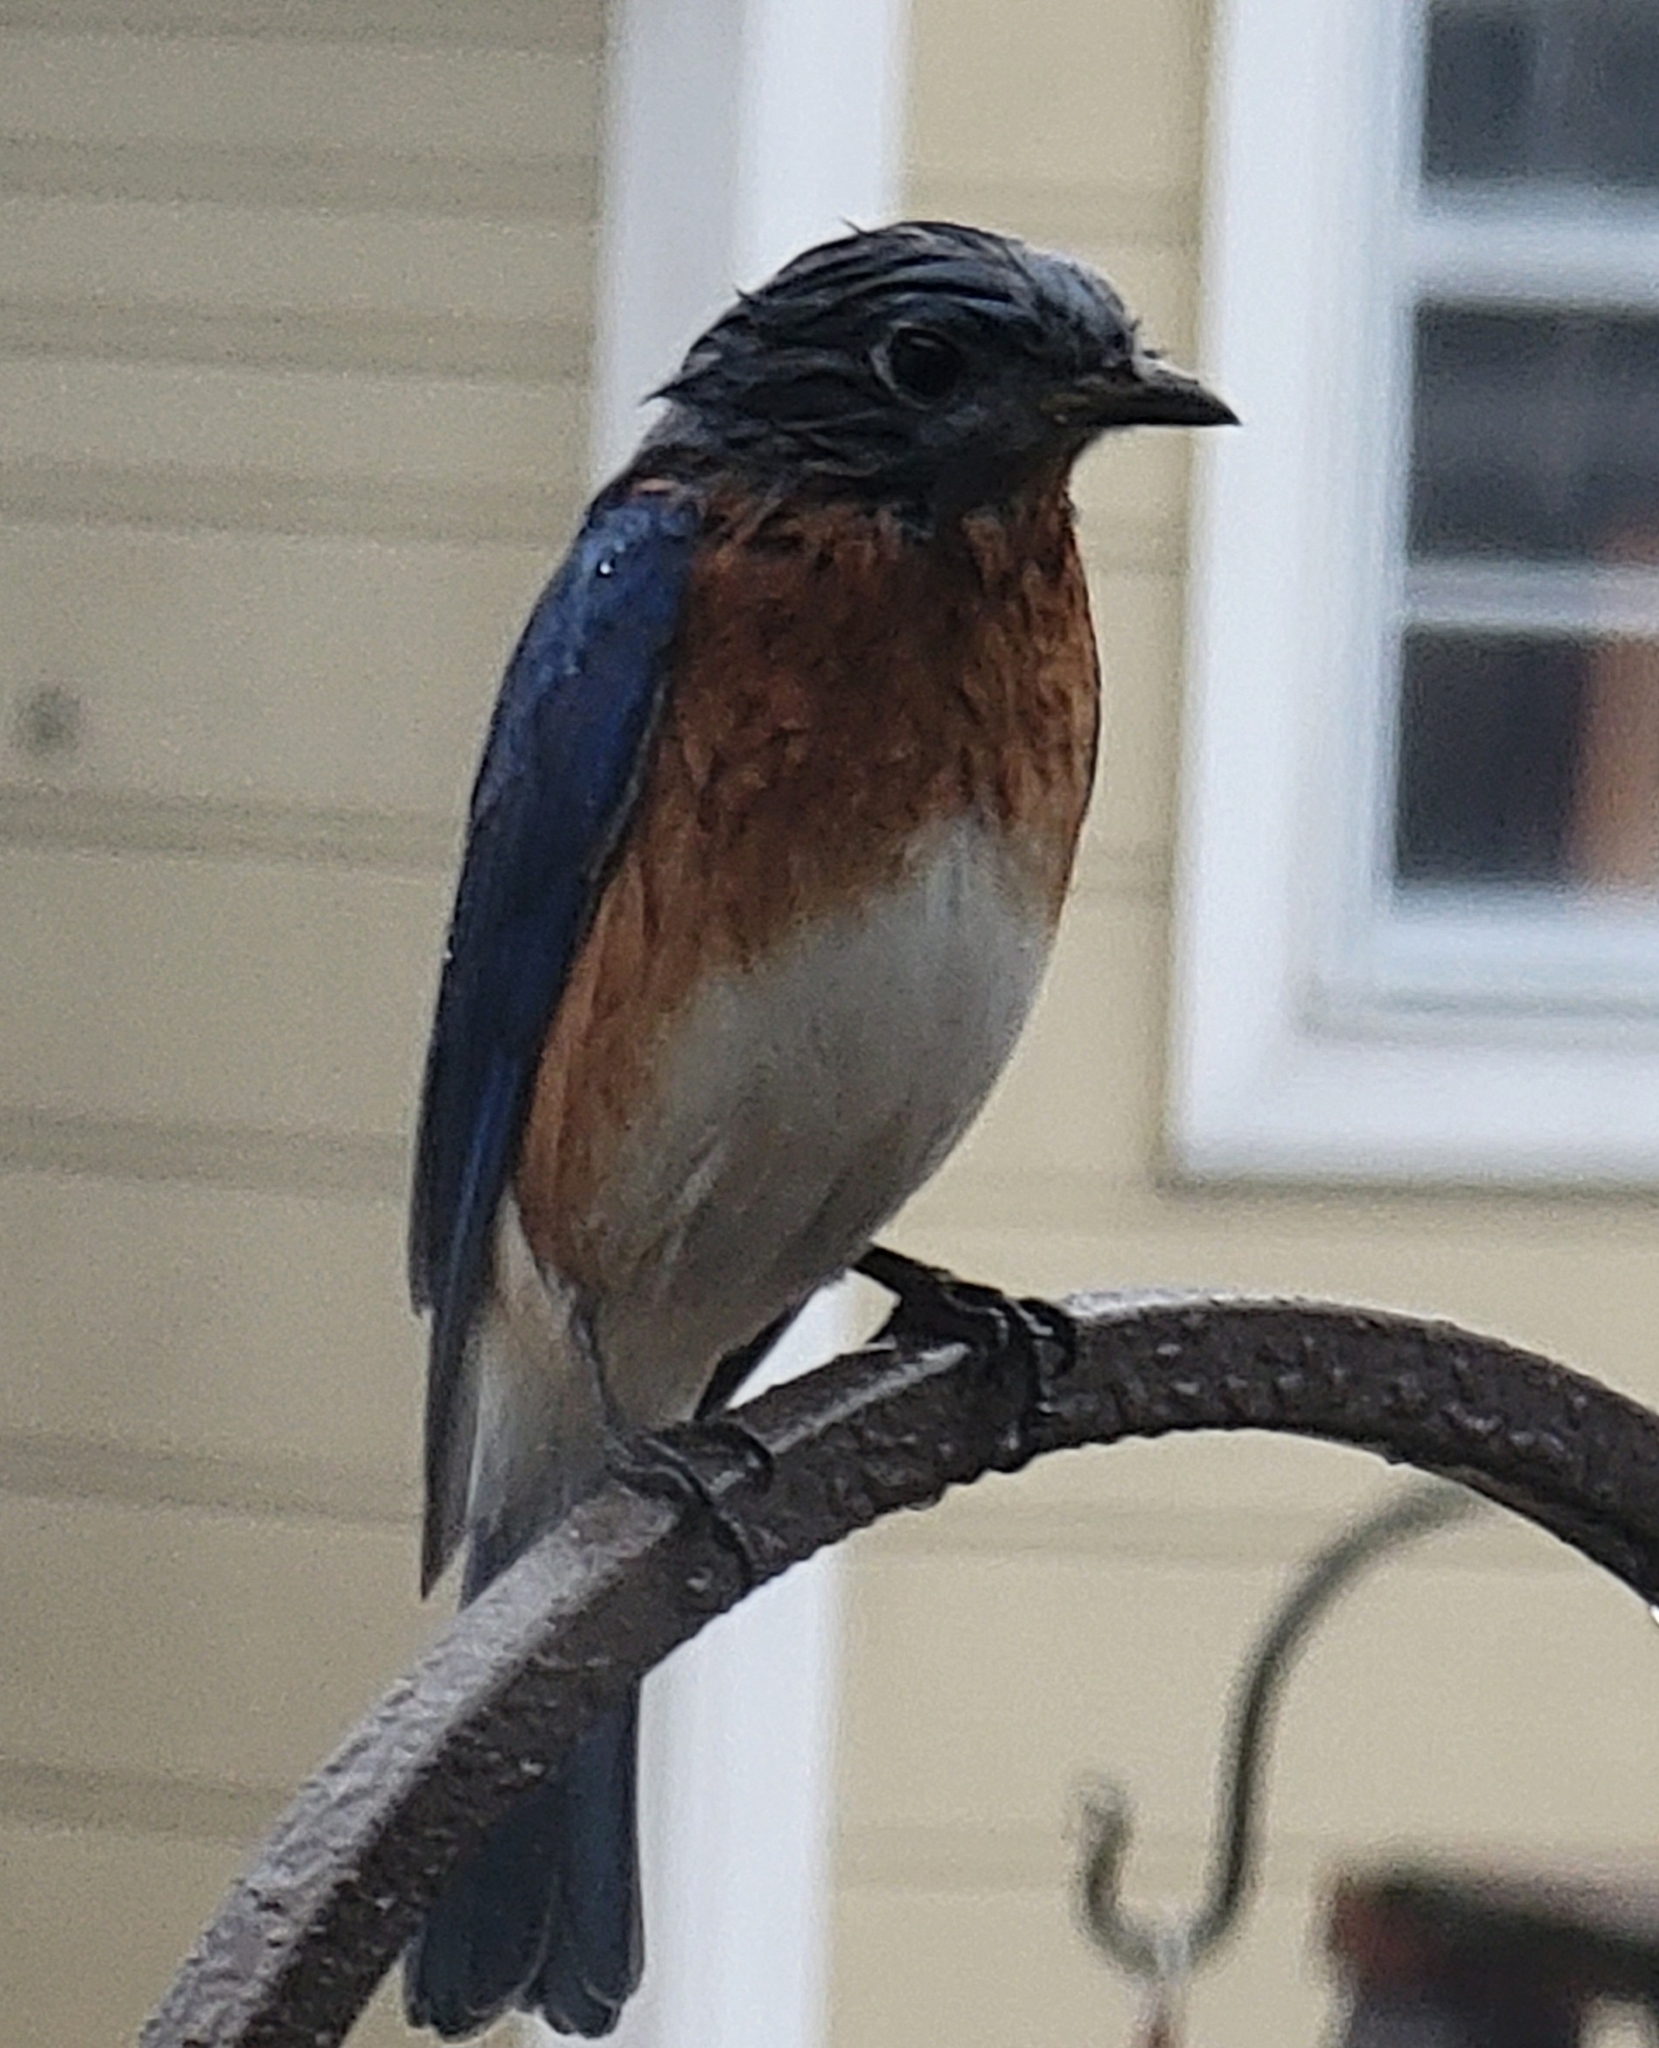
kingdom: Animalia
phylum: Chordata
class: Aves
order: Passeriformes
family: Turdidae
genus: Sialia
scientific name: Sialia sialis
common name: Eastern bluebird
